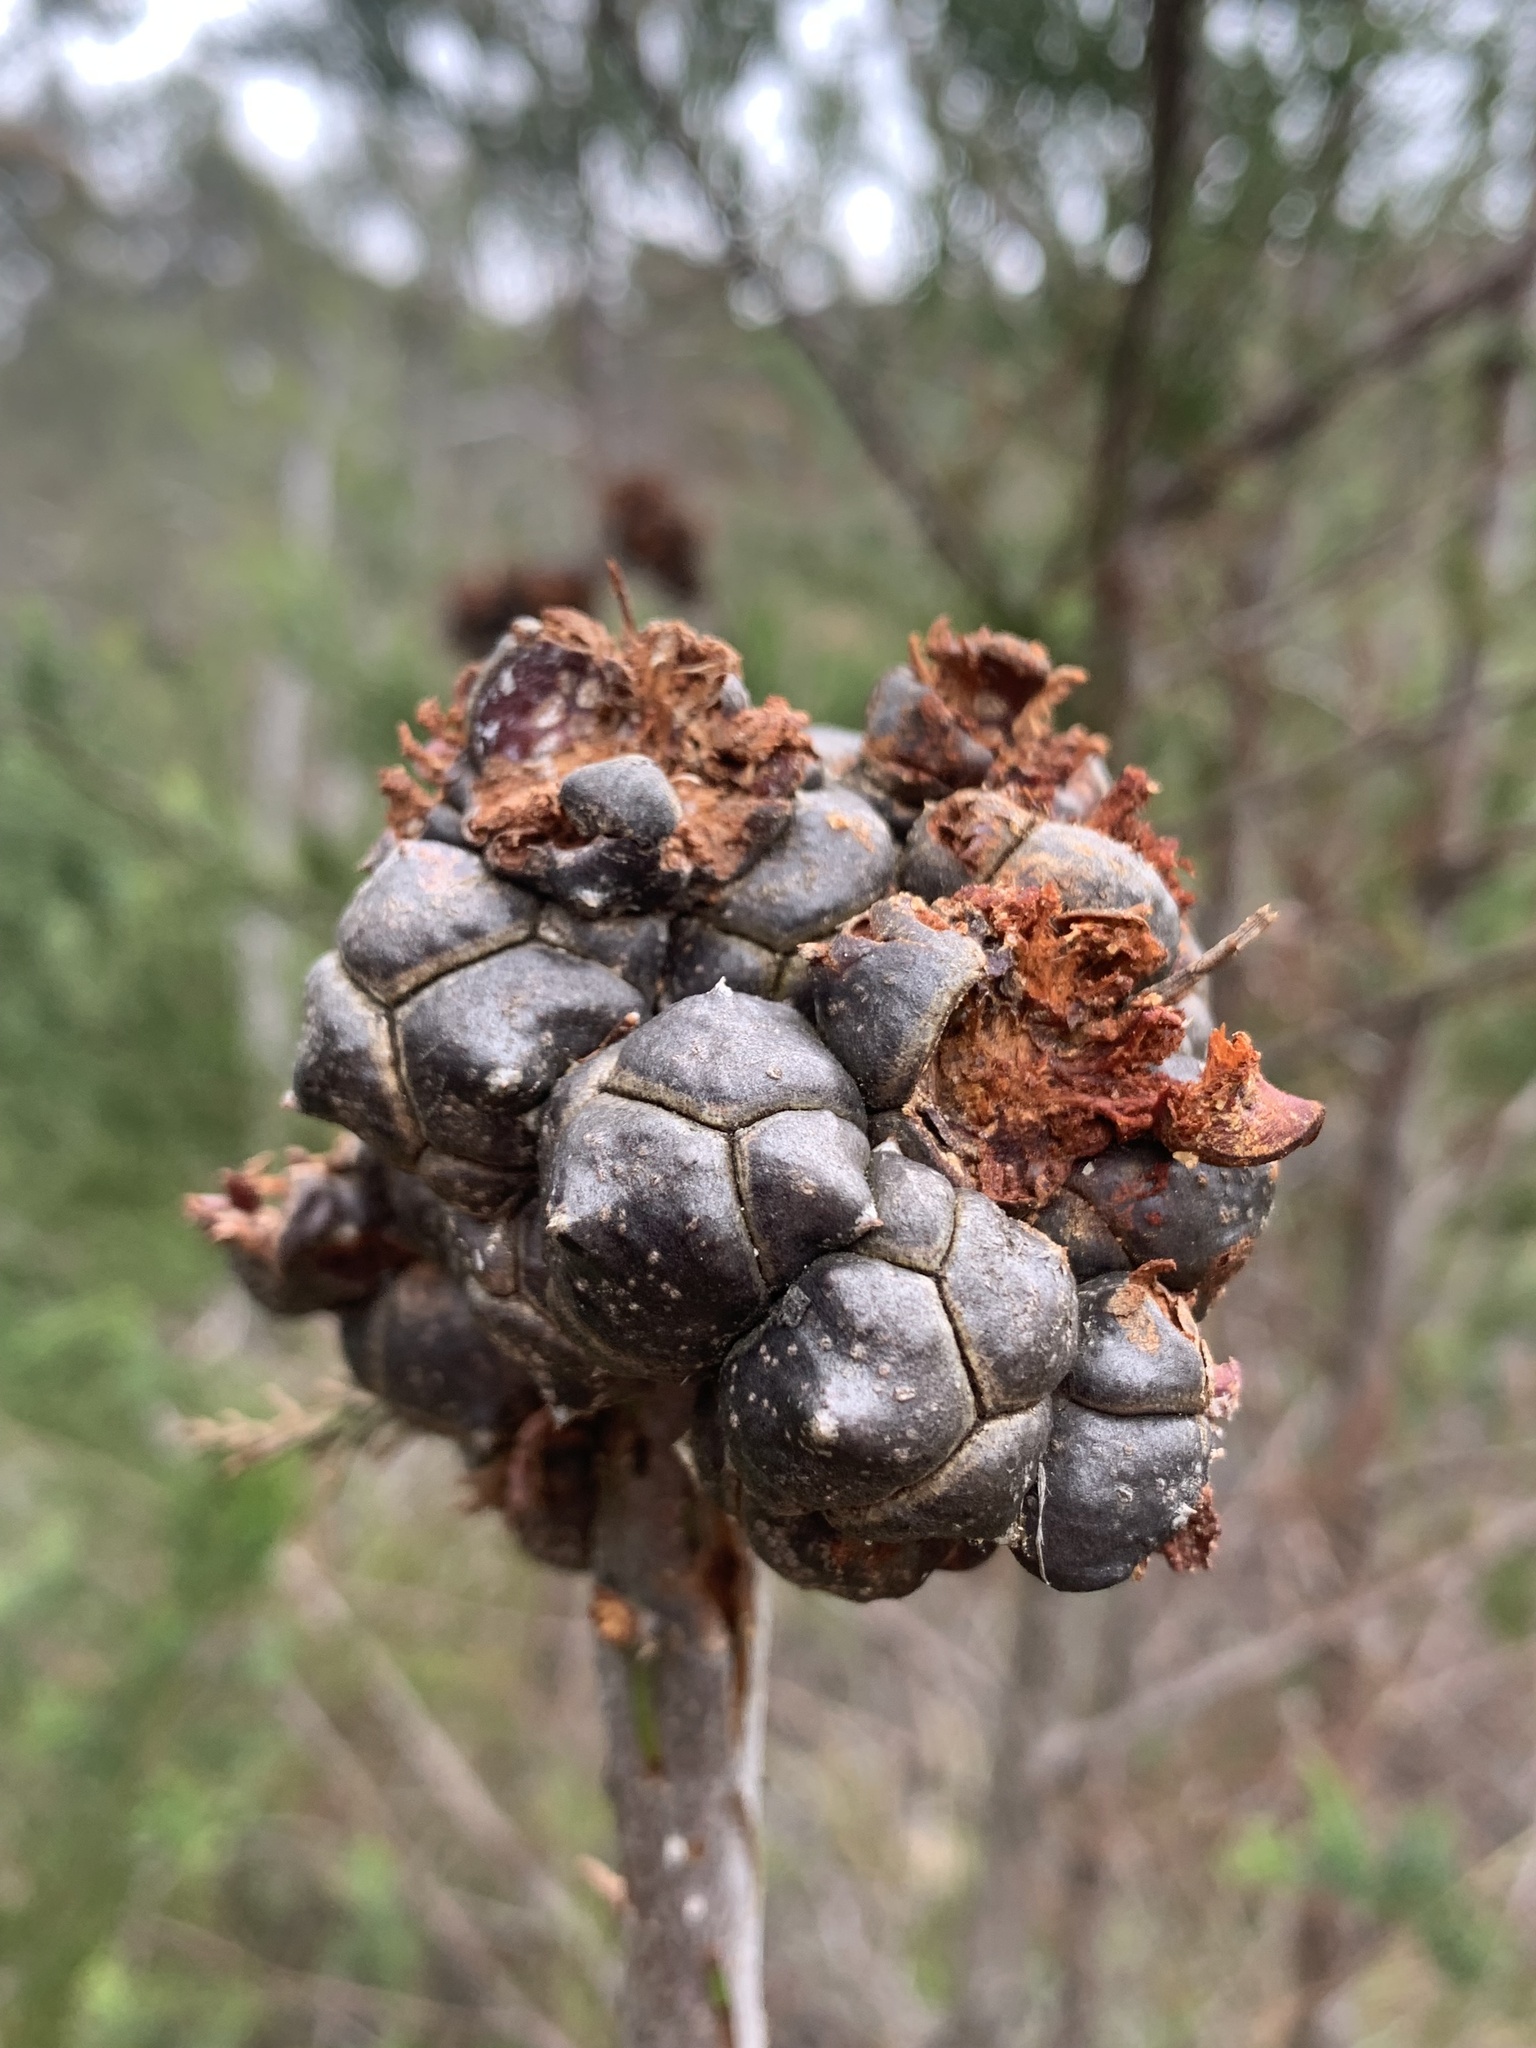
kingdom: Plantae
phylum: Tracheophyta
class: Pinopsida
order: Pinales
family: Cupressaceae
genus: Callitris
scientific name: Callitris rhomboidea
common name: Illawara mountain pine
